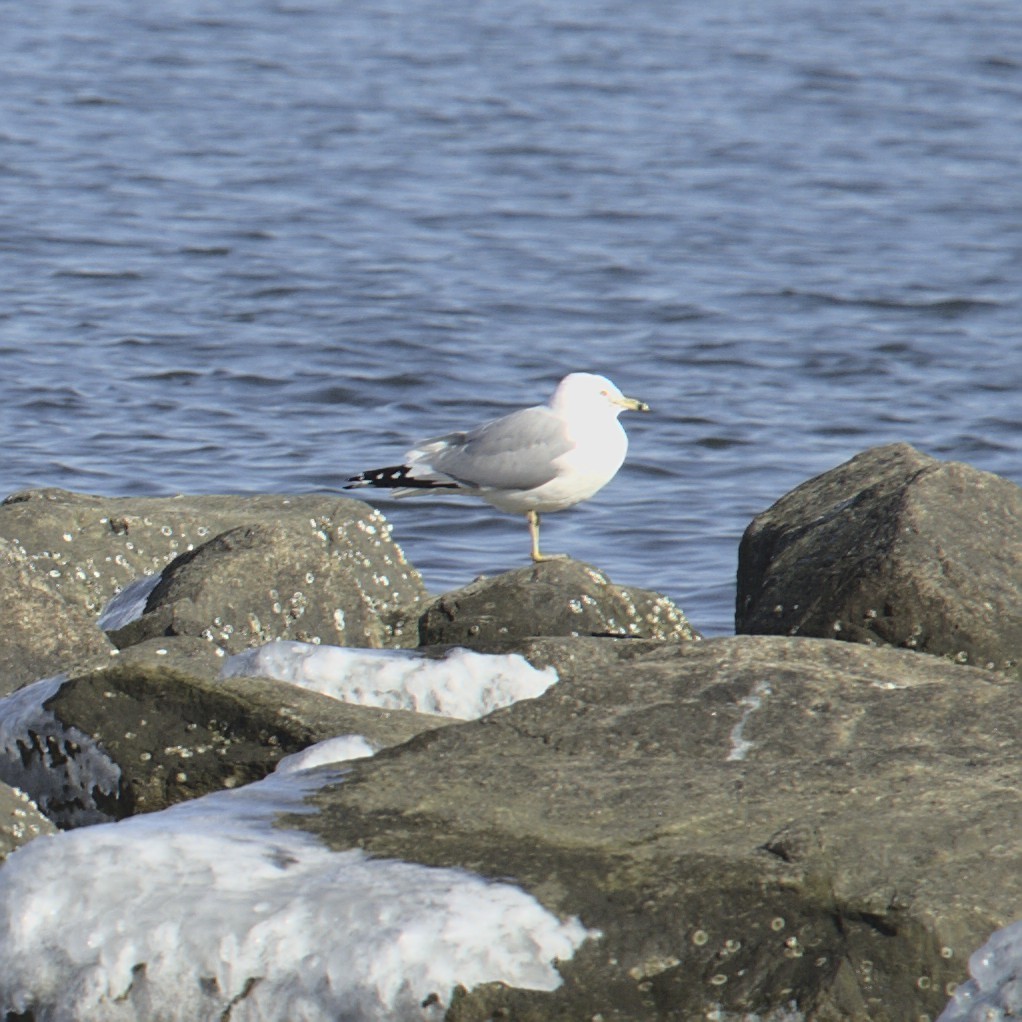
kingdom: Animalia
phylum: Chordata
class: Aves
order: Charadriiformes
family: Laridae
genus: Larus
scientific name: Larus delawarensis
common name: Ring-billed gull
